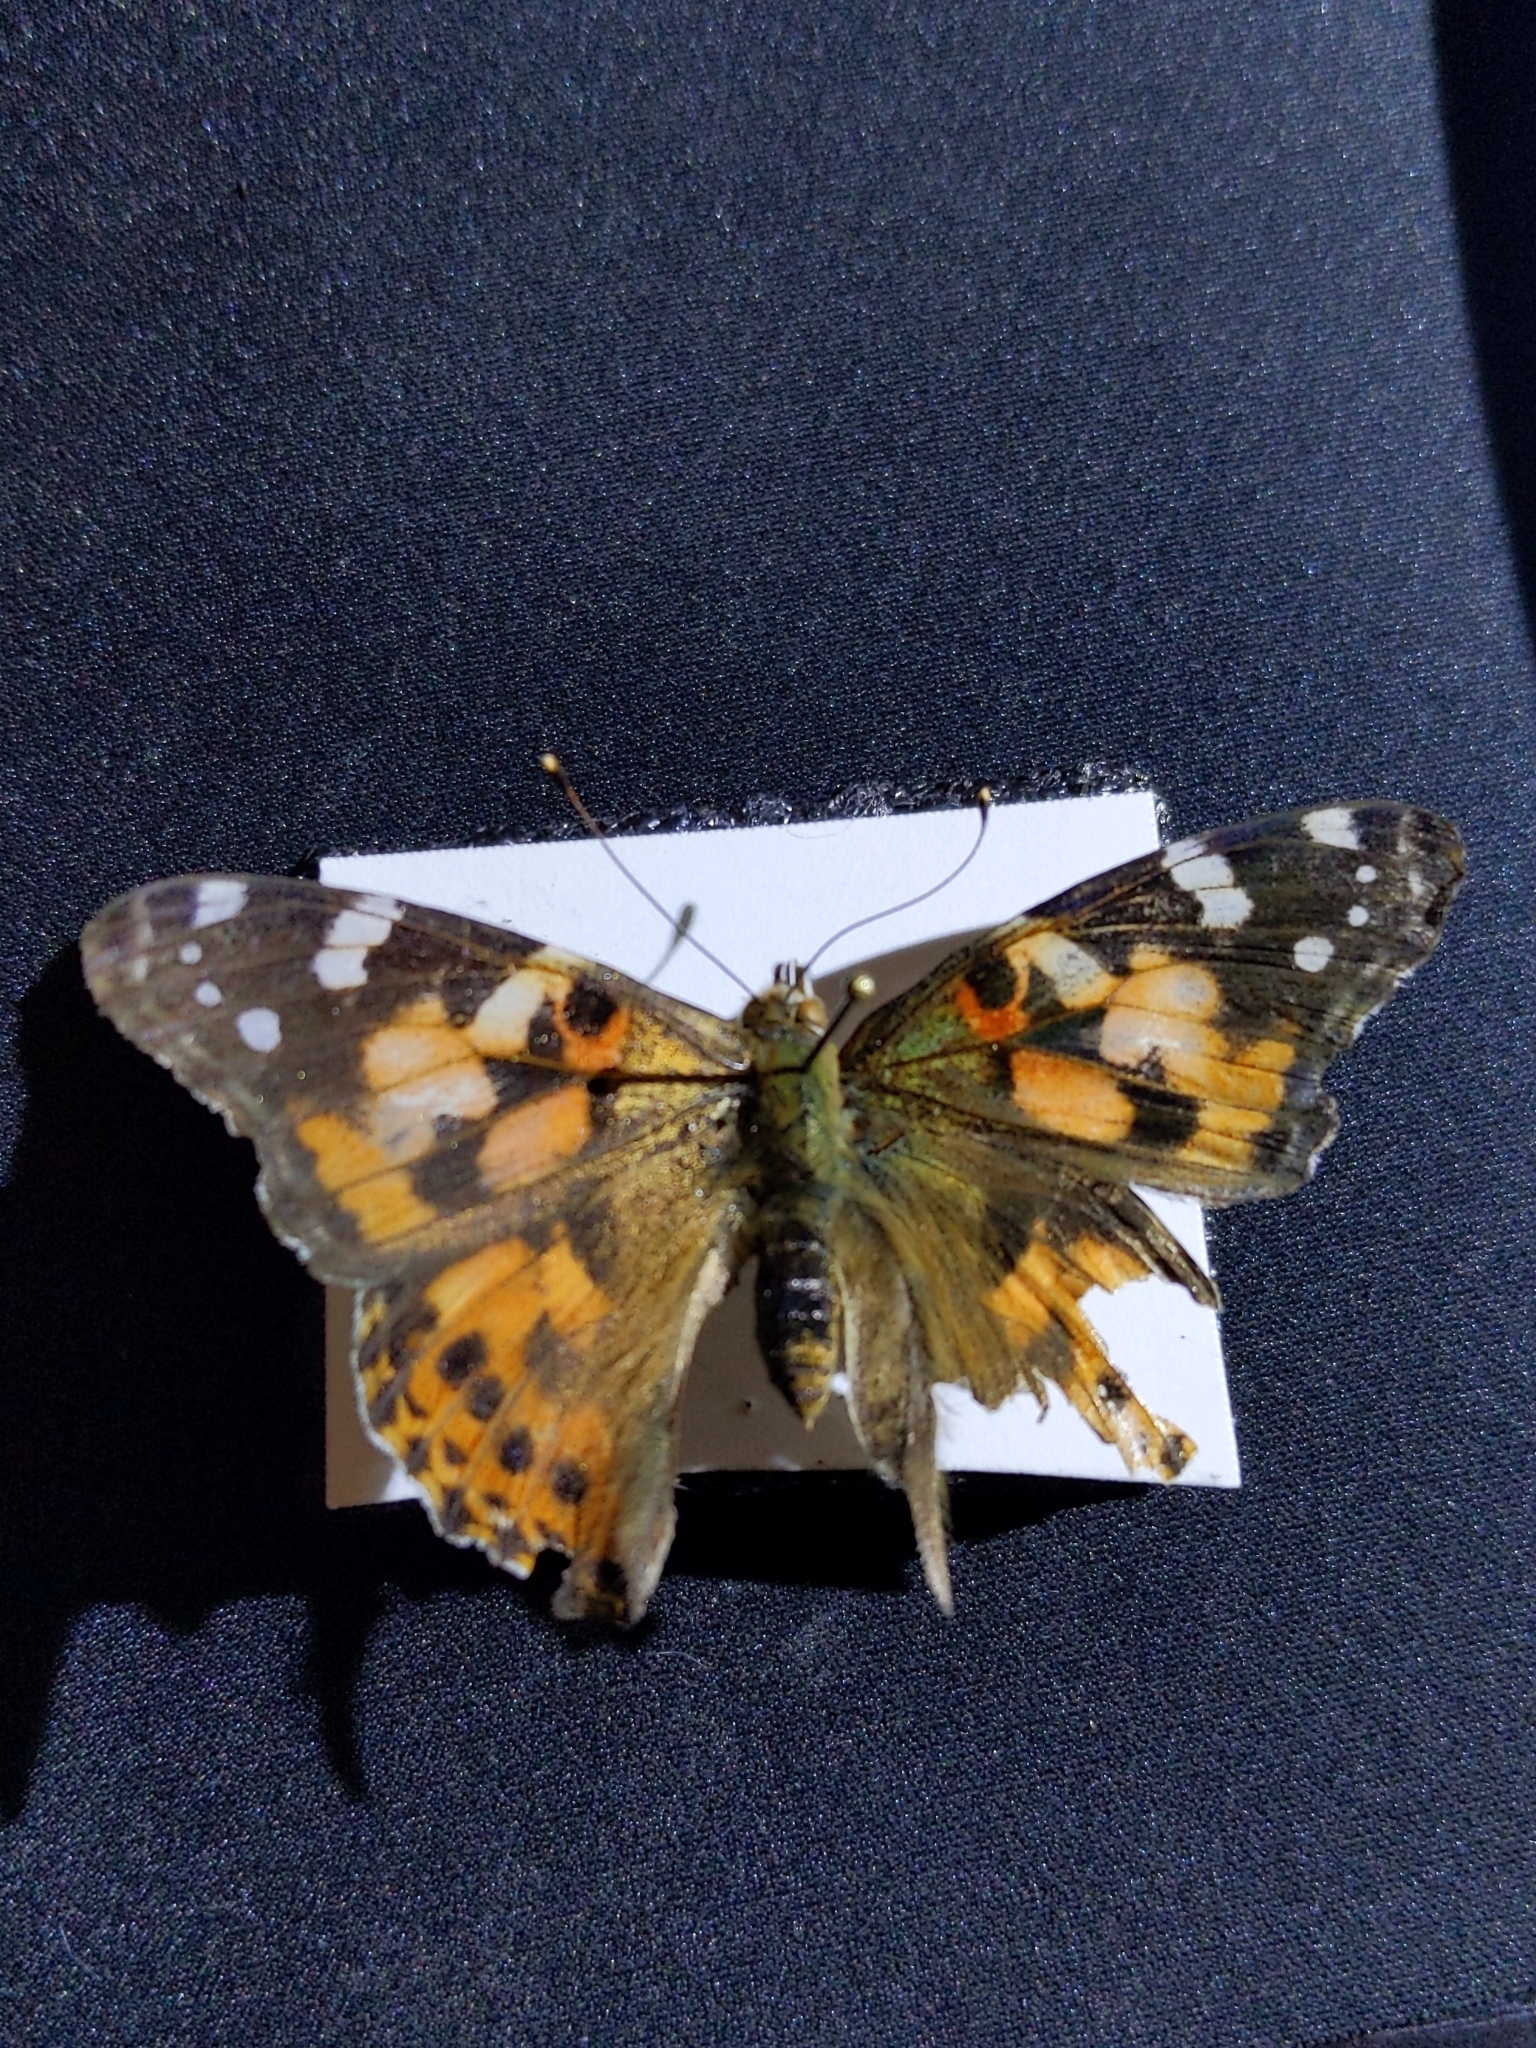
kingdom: Animalia
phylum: Arthropoda
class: Insecta
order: Lepidoptera
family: Nymphalidae
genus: Vanessa
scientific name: Vanessa cardui
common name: Painted lady
